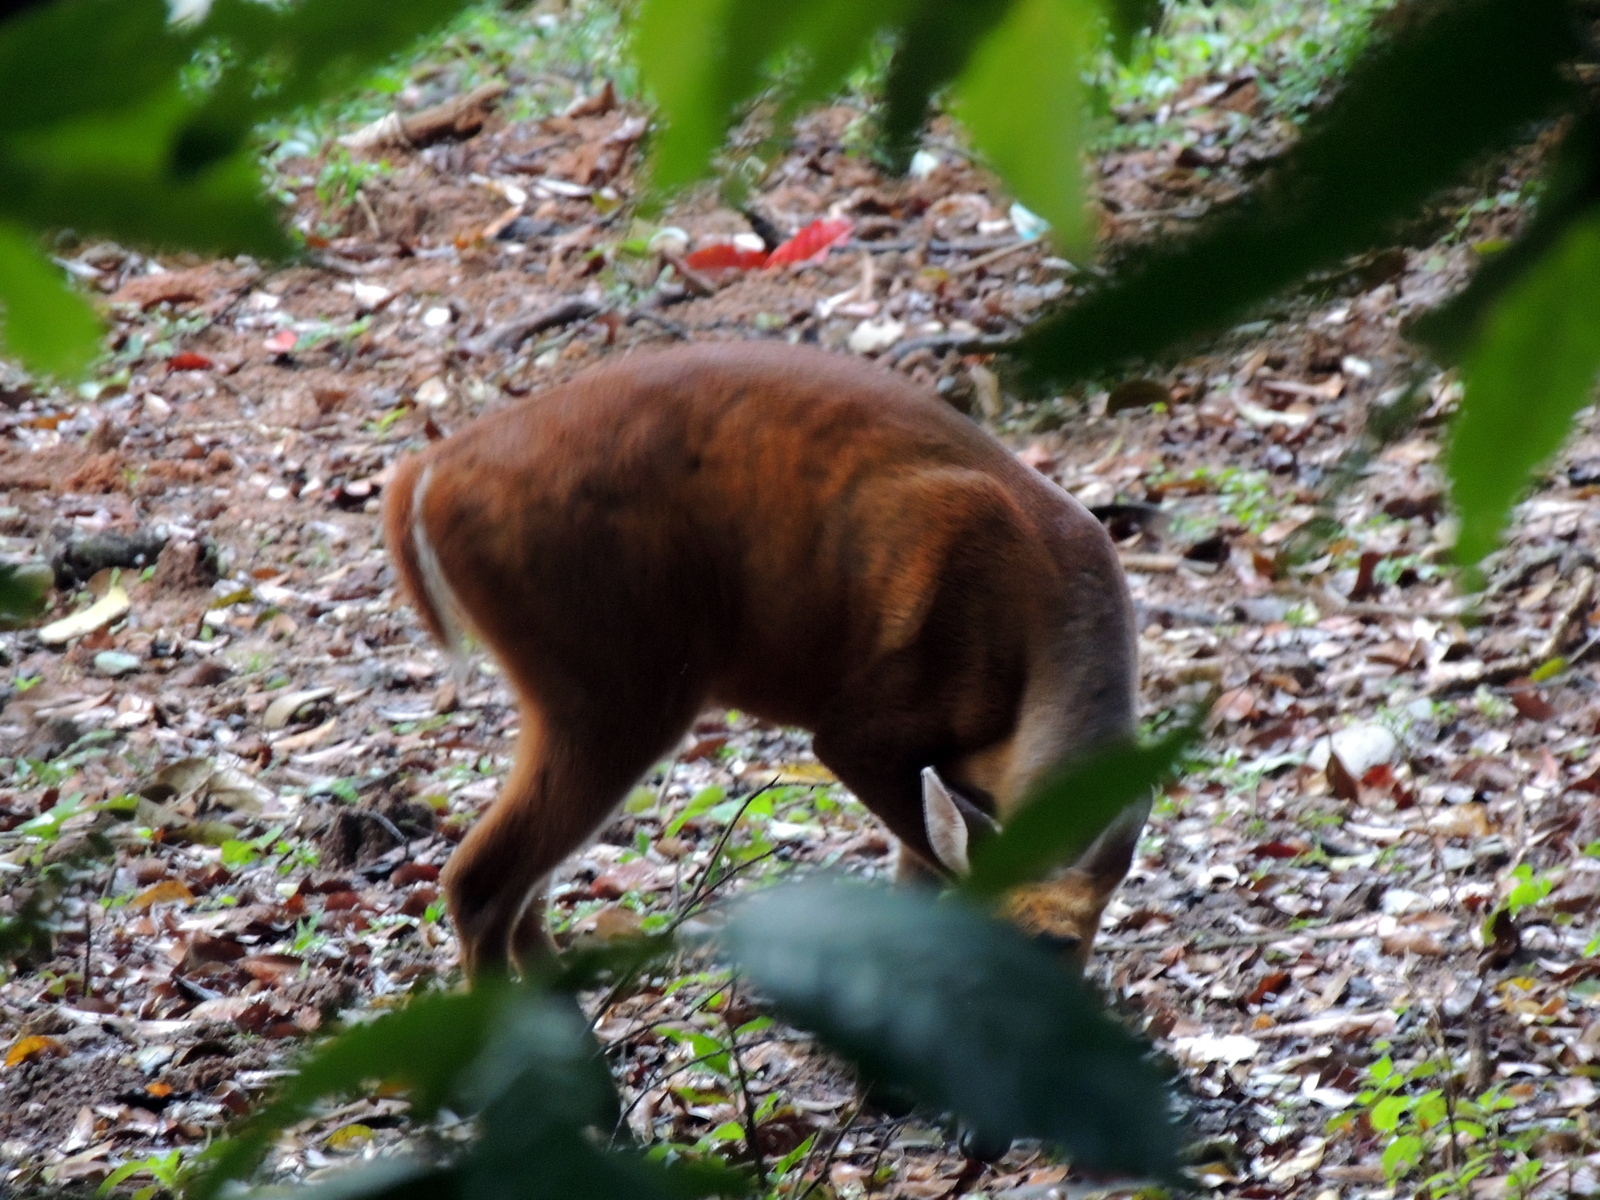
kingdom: Animalia
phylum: Chordata
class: Mammalia
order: Artiodactyla
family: Cervidae
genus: Muntiacus
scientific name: Muntiacus muntjak
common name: Indian muntjac
